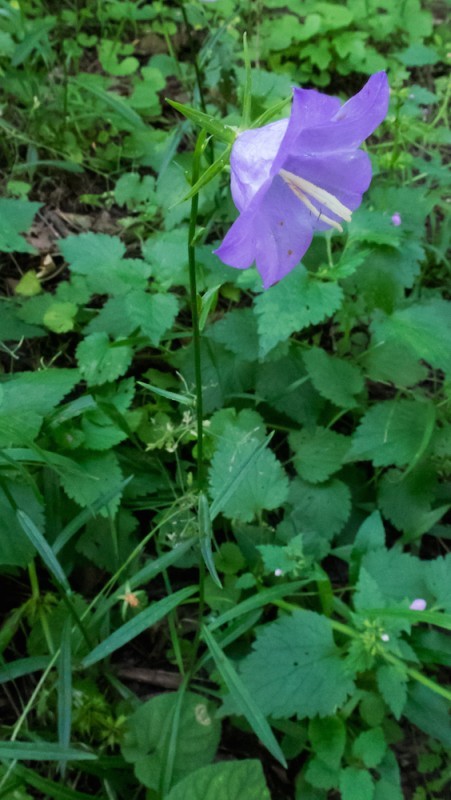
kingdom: Plantae
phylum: Tracheophyta
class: Magnoliopsida
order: Asterales
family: Campanulaceae
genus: Campanula
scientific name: Campanula persicifolia
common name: Peach-leaved bellflower
